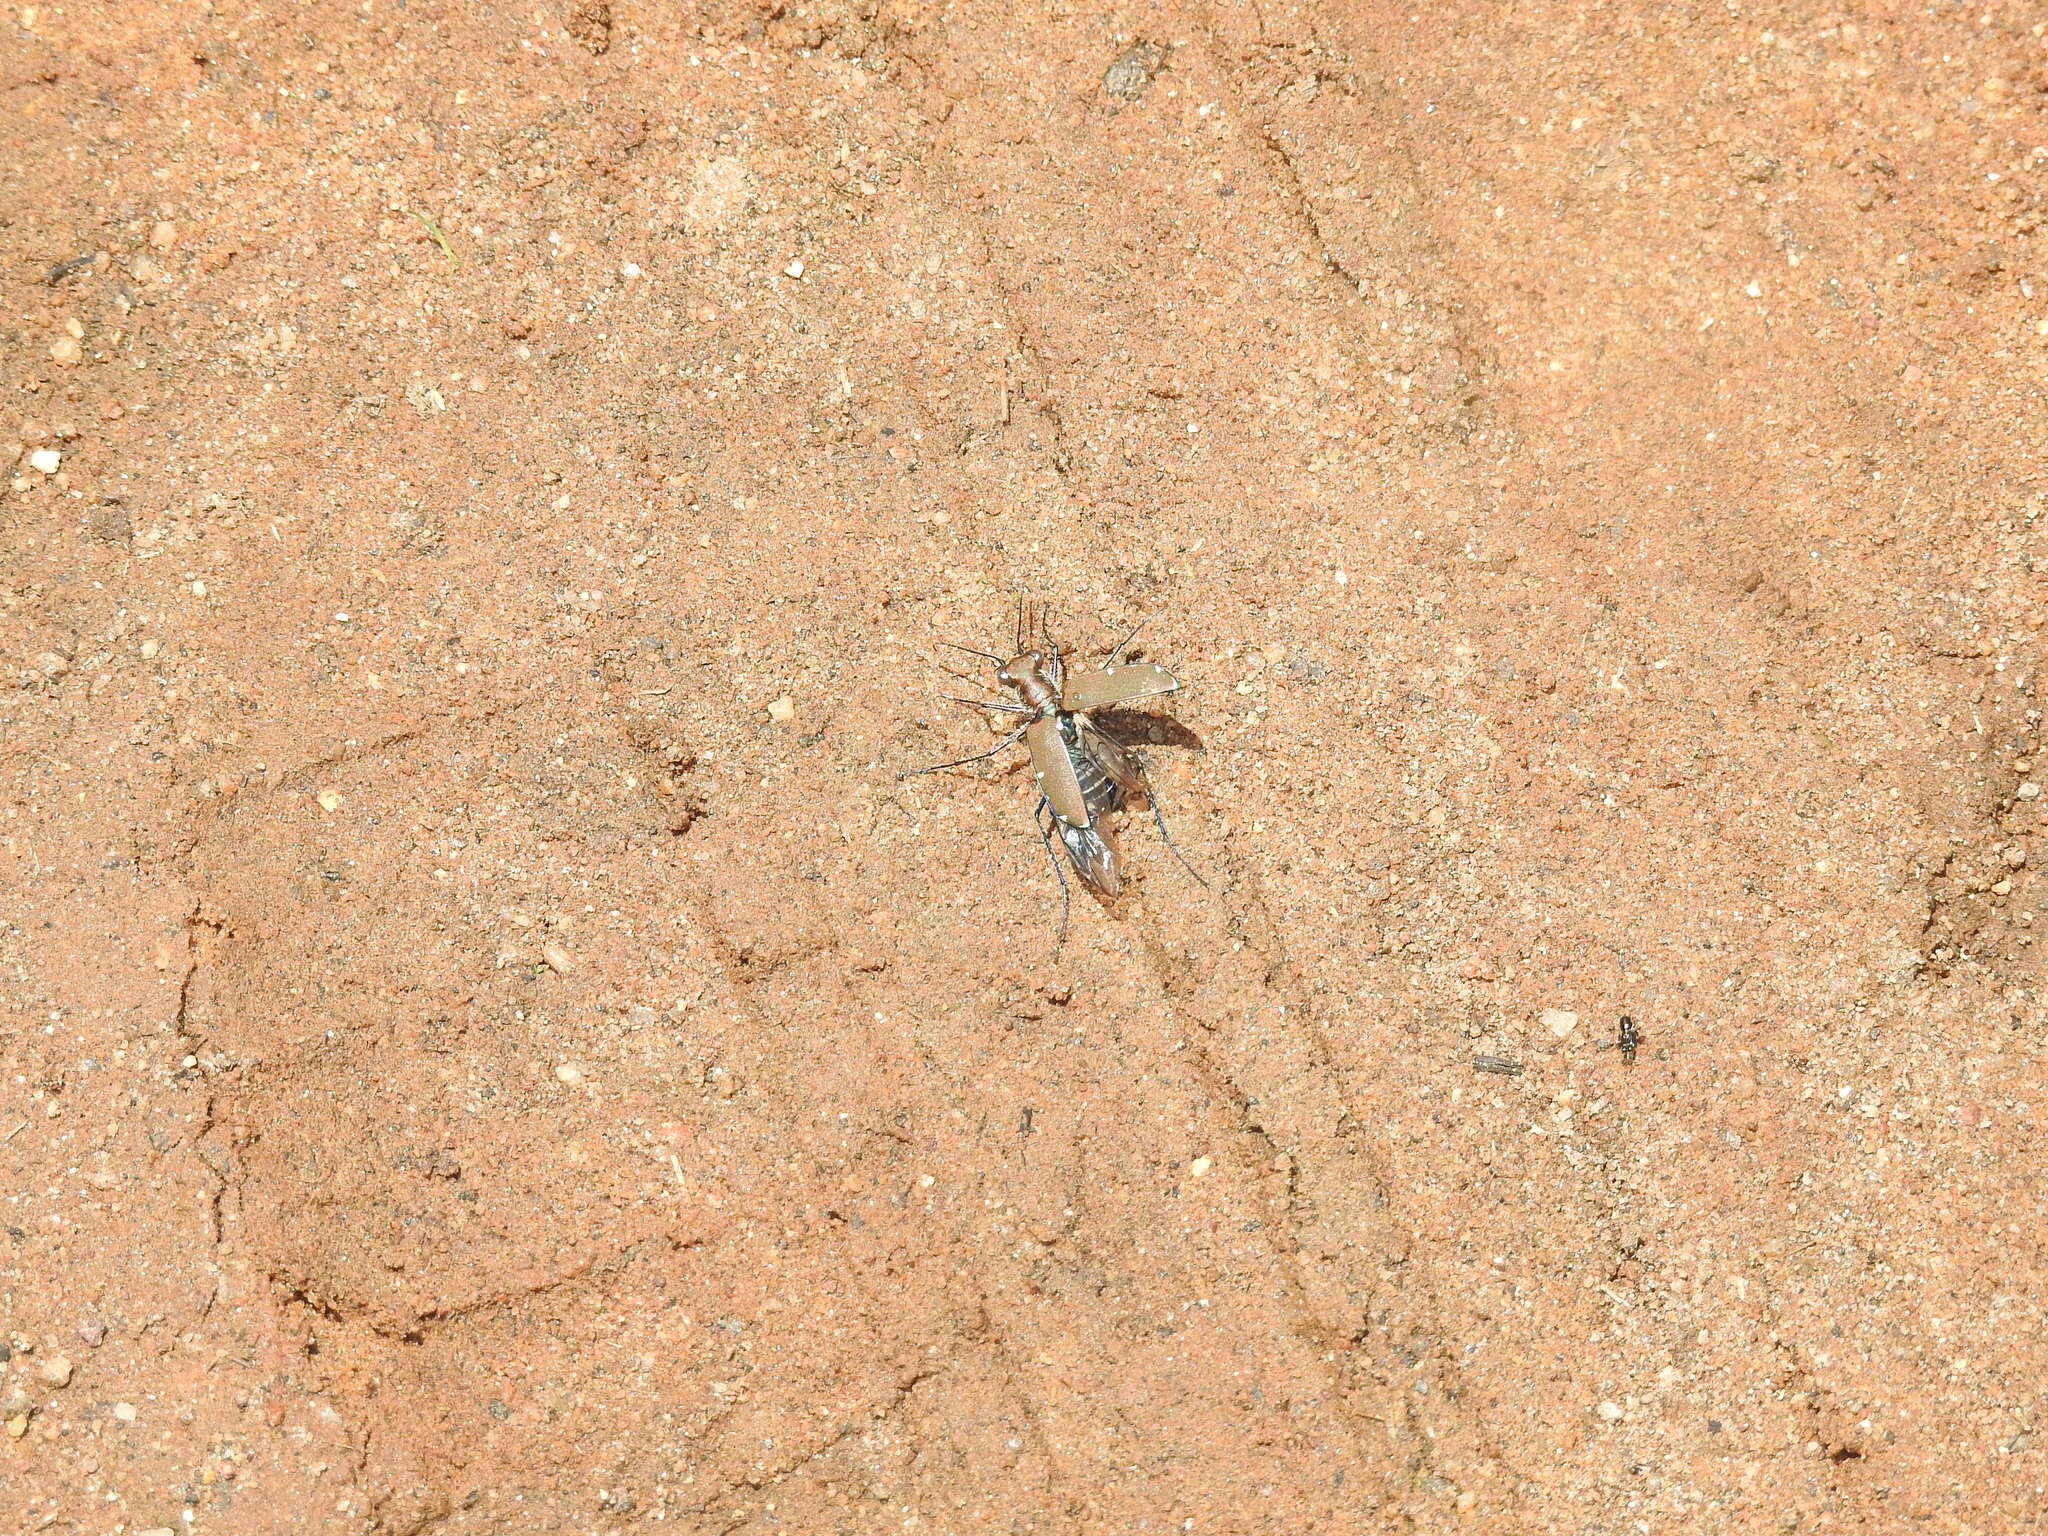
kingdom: Animalia
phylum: Arthropoda
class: Insecta
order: Coleoptera
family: Carabidae
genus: Cicindela
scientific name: Cicindela funerea
